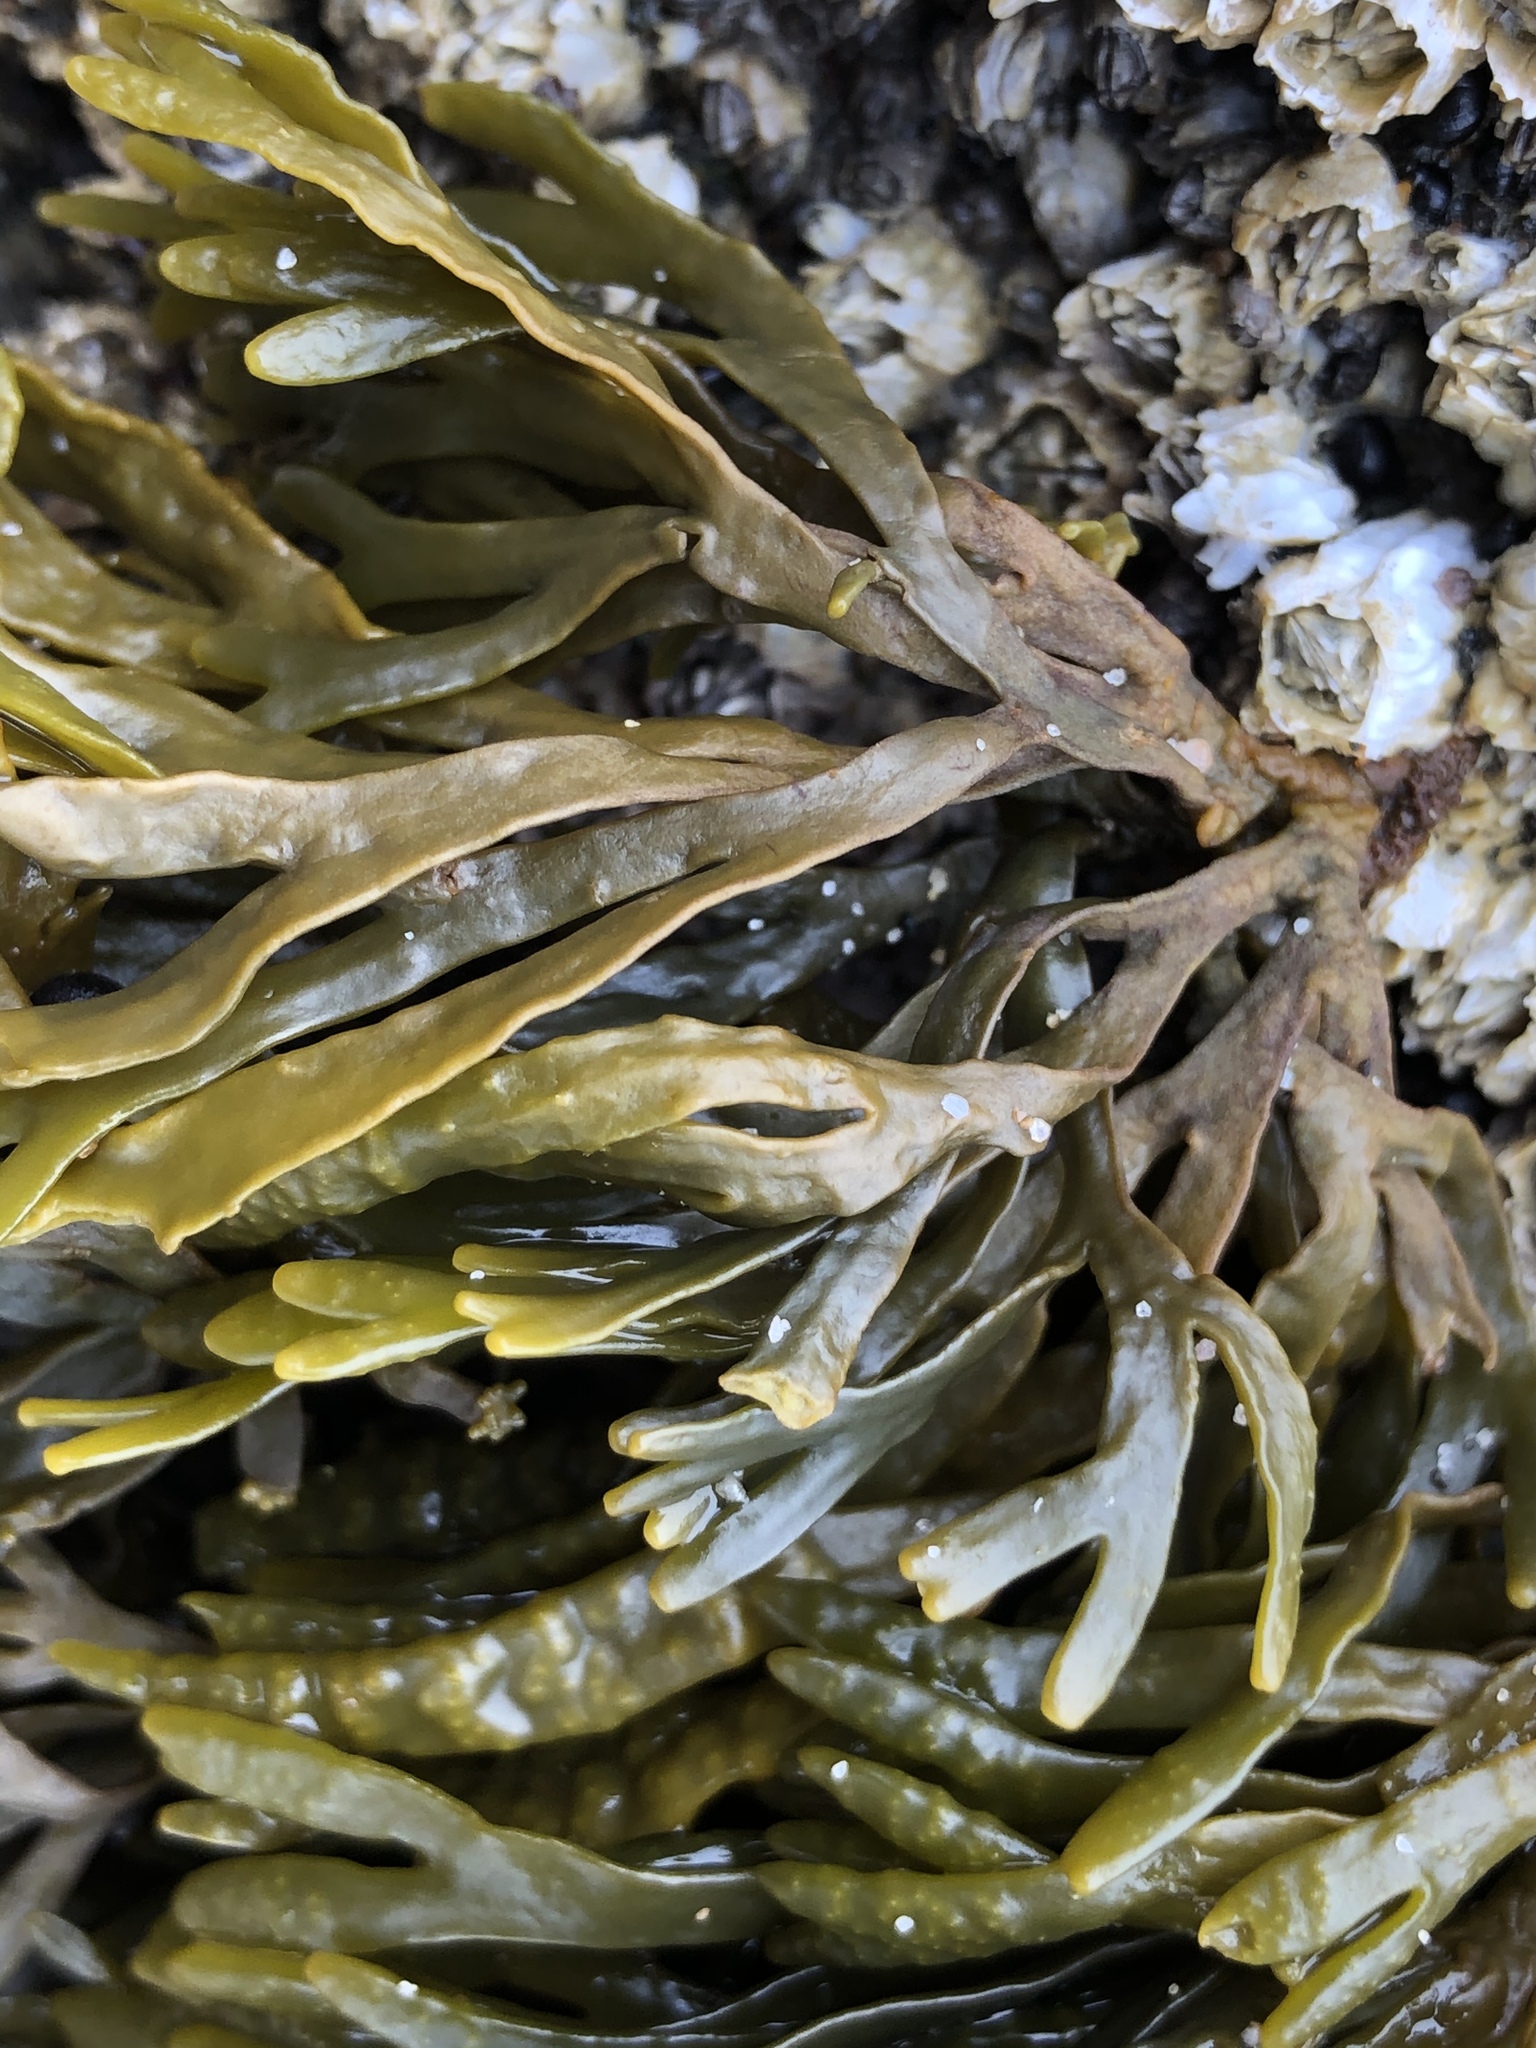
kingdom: Chromista
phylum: Ochrophyta
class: Phaeophyceae
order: Fucales
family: Fucaceae
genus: Pelvetiopsis
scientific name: Pelvetiopsis limitata
